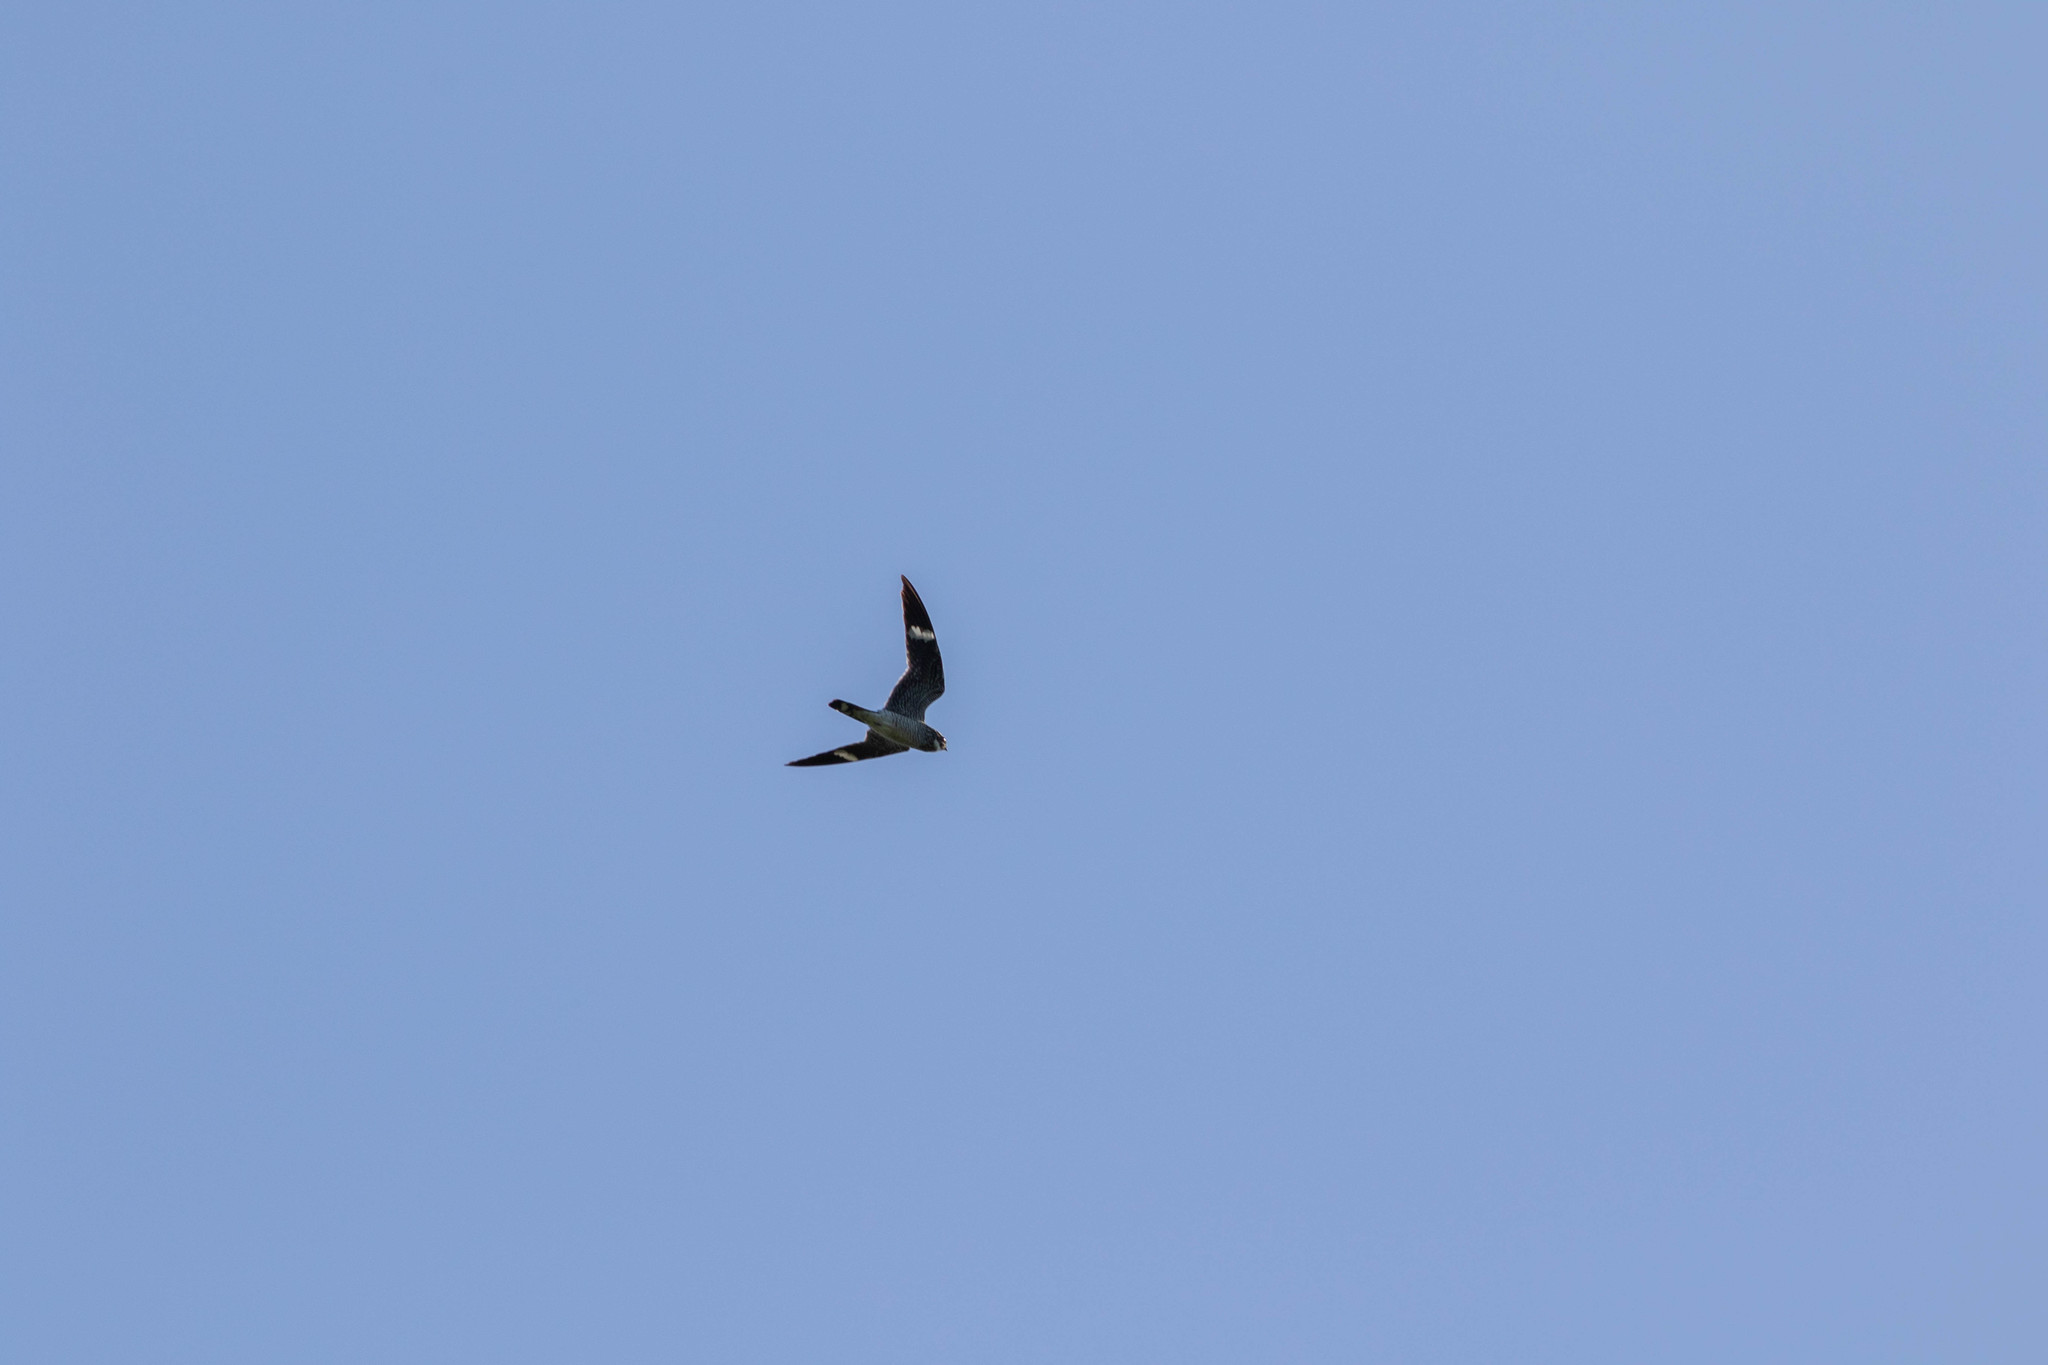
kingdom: Animalia
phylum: Chordata
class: Aves
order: Caprimulgiformes
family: Caprimulgidae
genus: Chordeiles
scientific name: Chordeiles minor
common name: Common nighthawk
